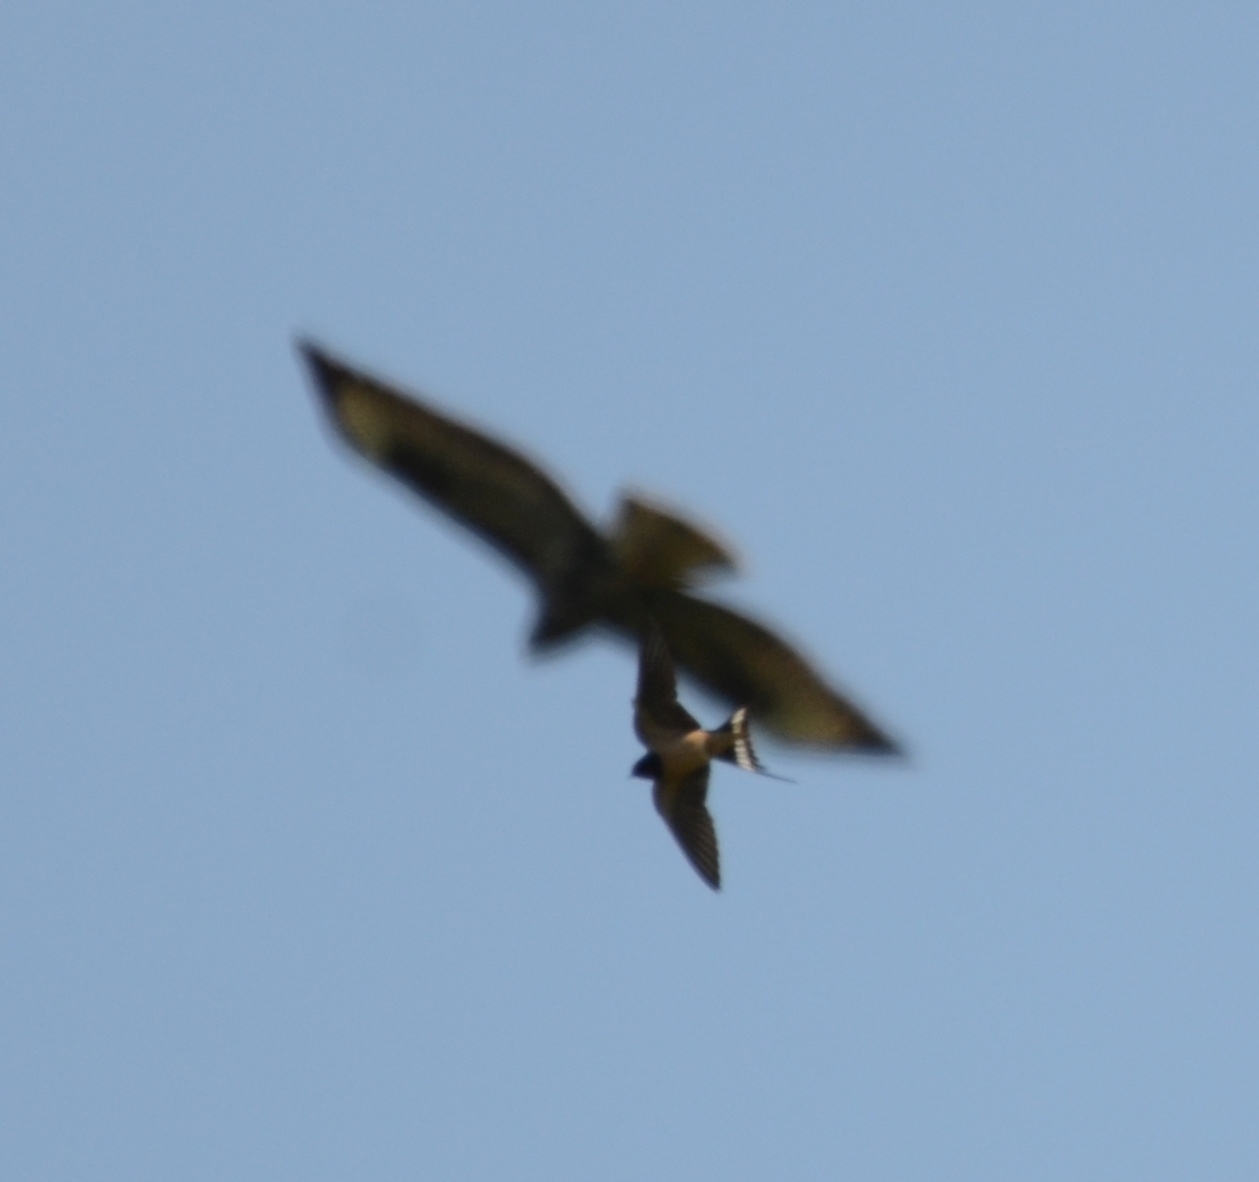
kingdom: Animalia
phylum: Chordata
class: Aves
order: Passeriformes
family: Hirundinidae
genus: Hirundo
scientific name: Hirundo rustica
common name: Barn swallow
